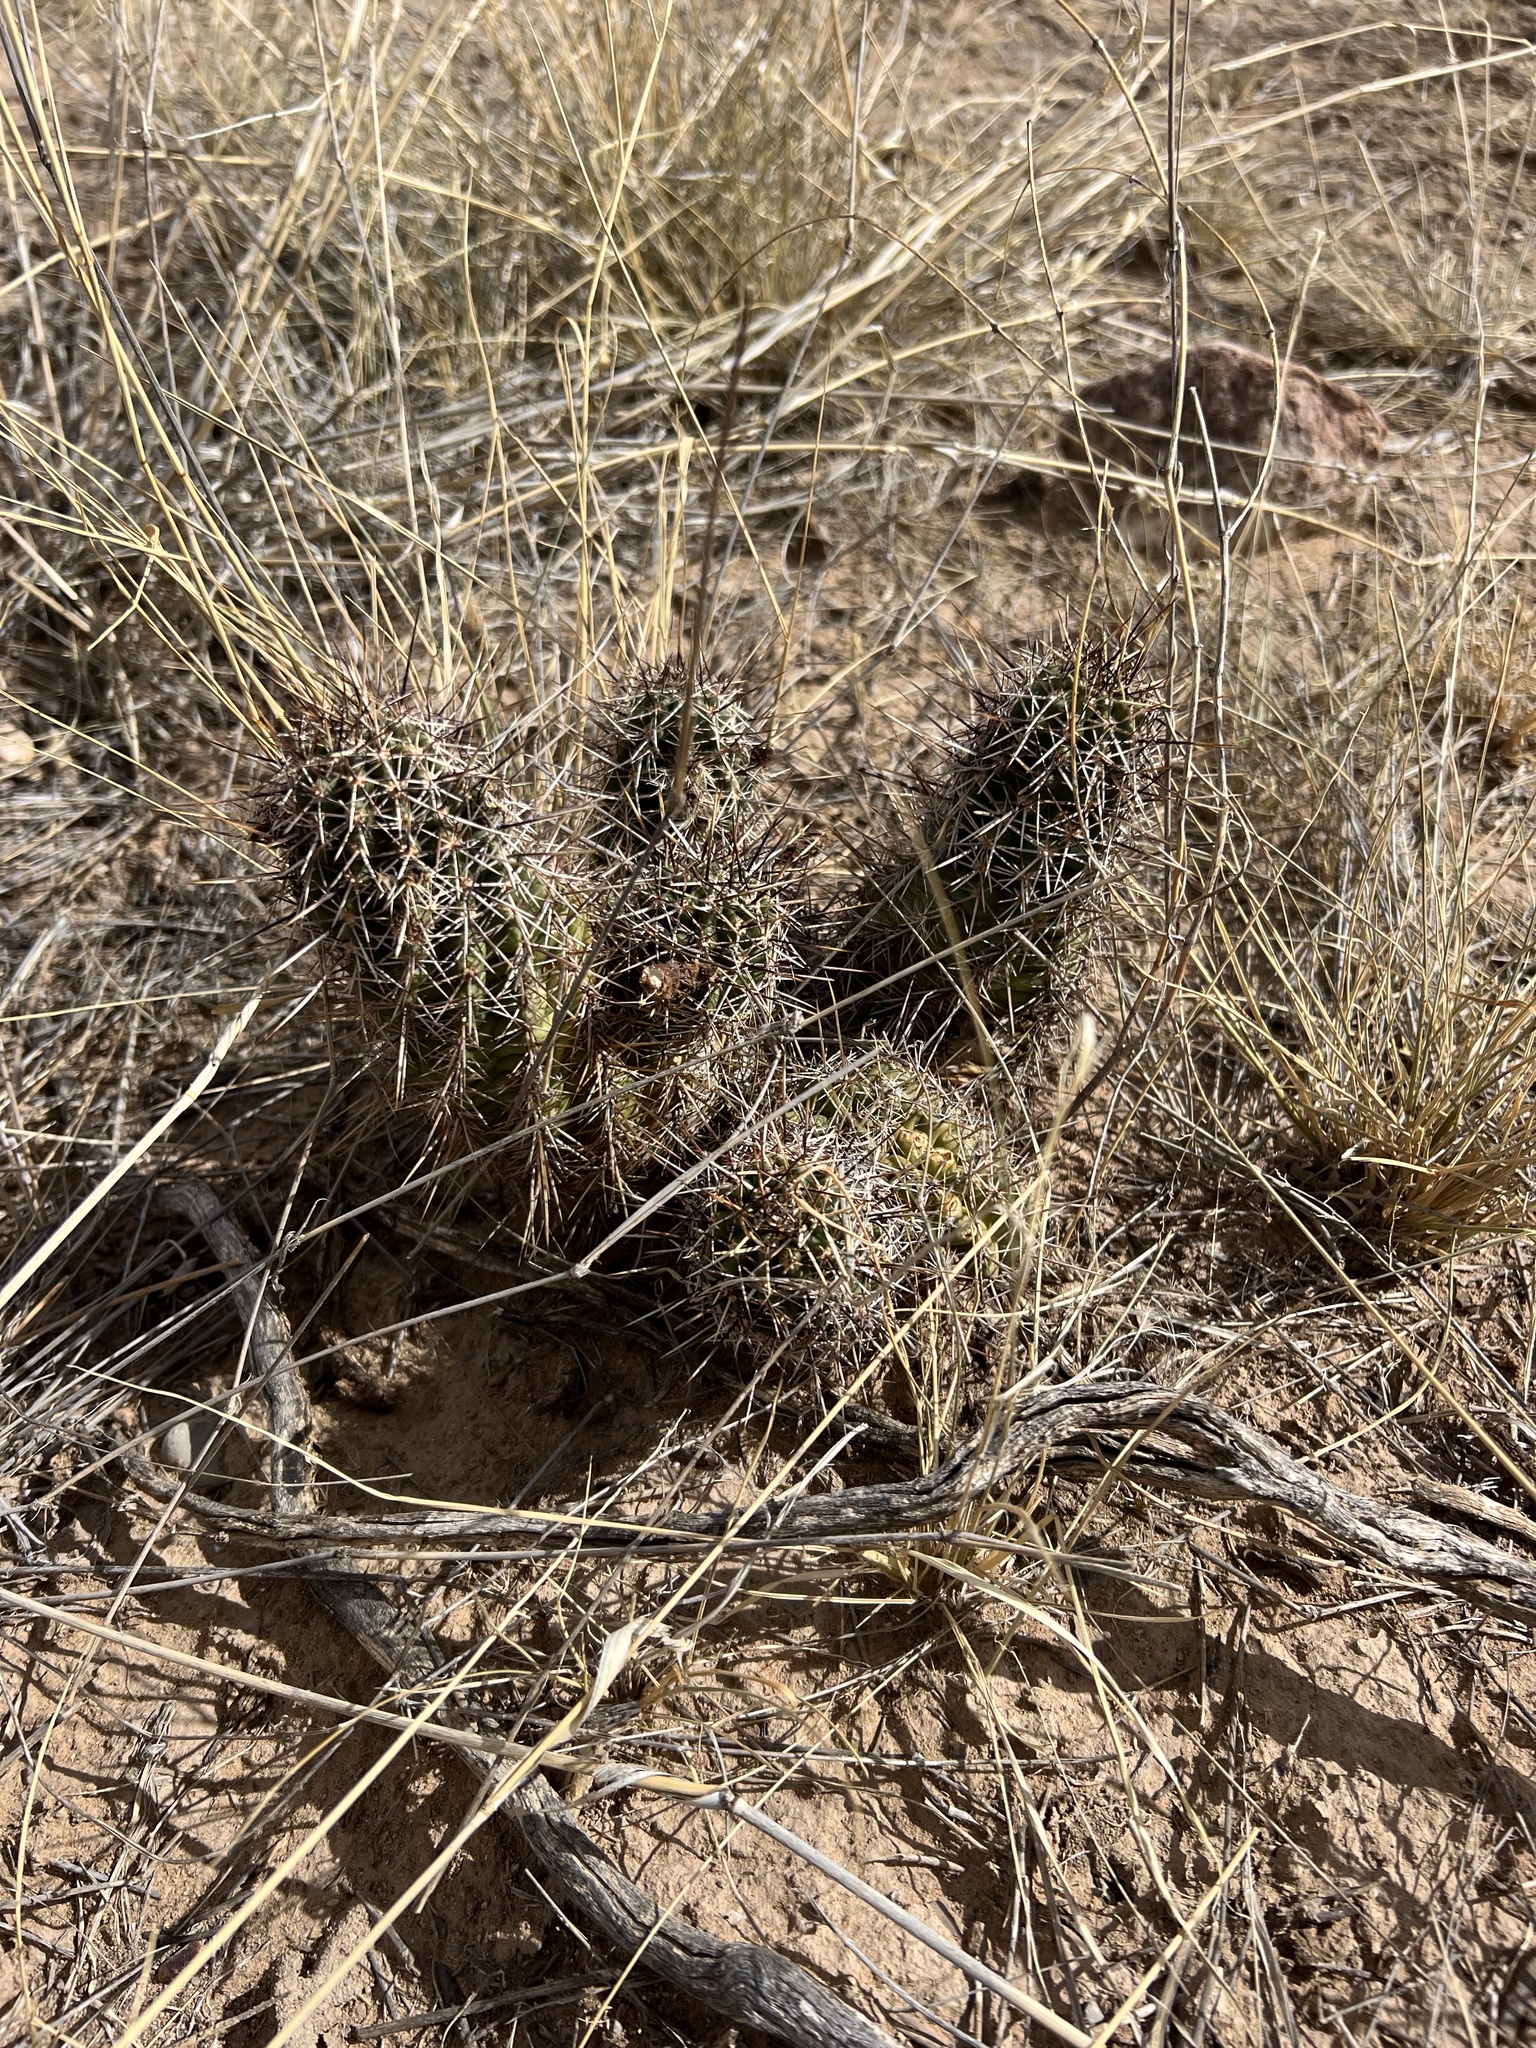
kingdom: Plantae
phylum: Tracheophyta
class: Magnoliopsida
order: Caryophyllales
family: Cactaceae
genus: Echinocereus
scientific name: Echinocereus fendleri
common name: Fendler's hedgehog cactus
